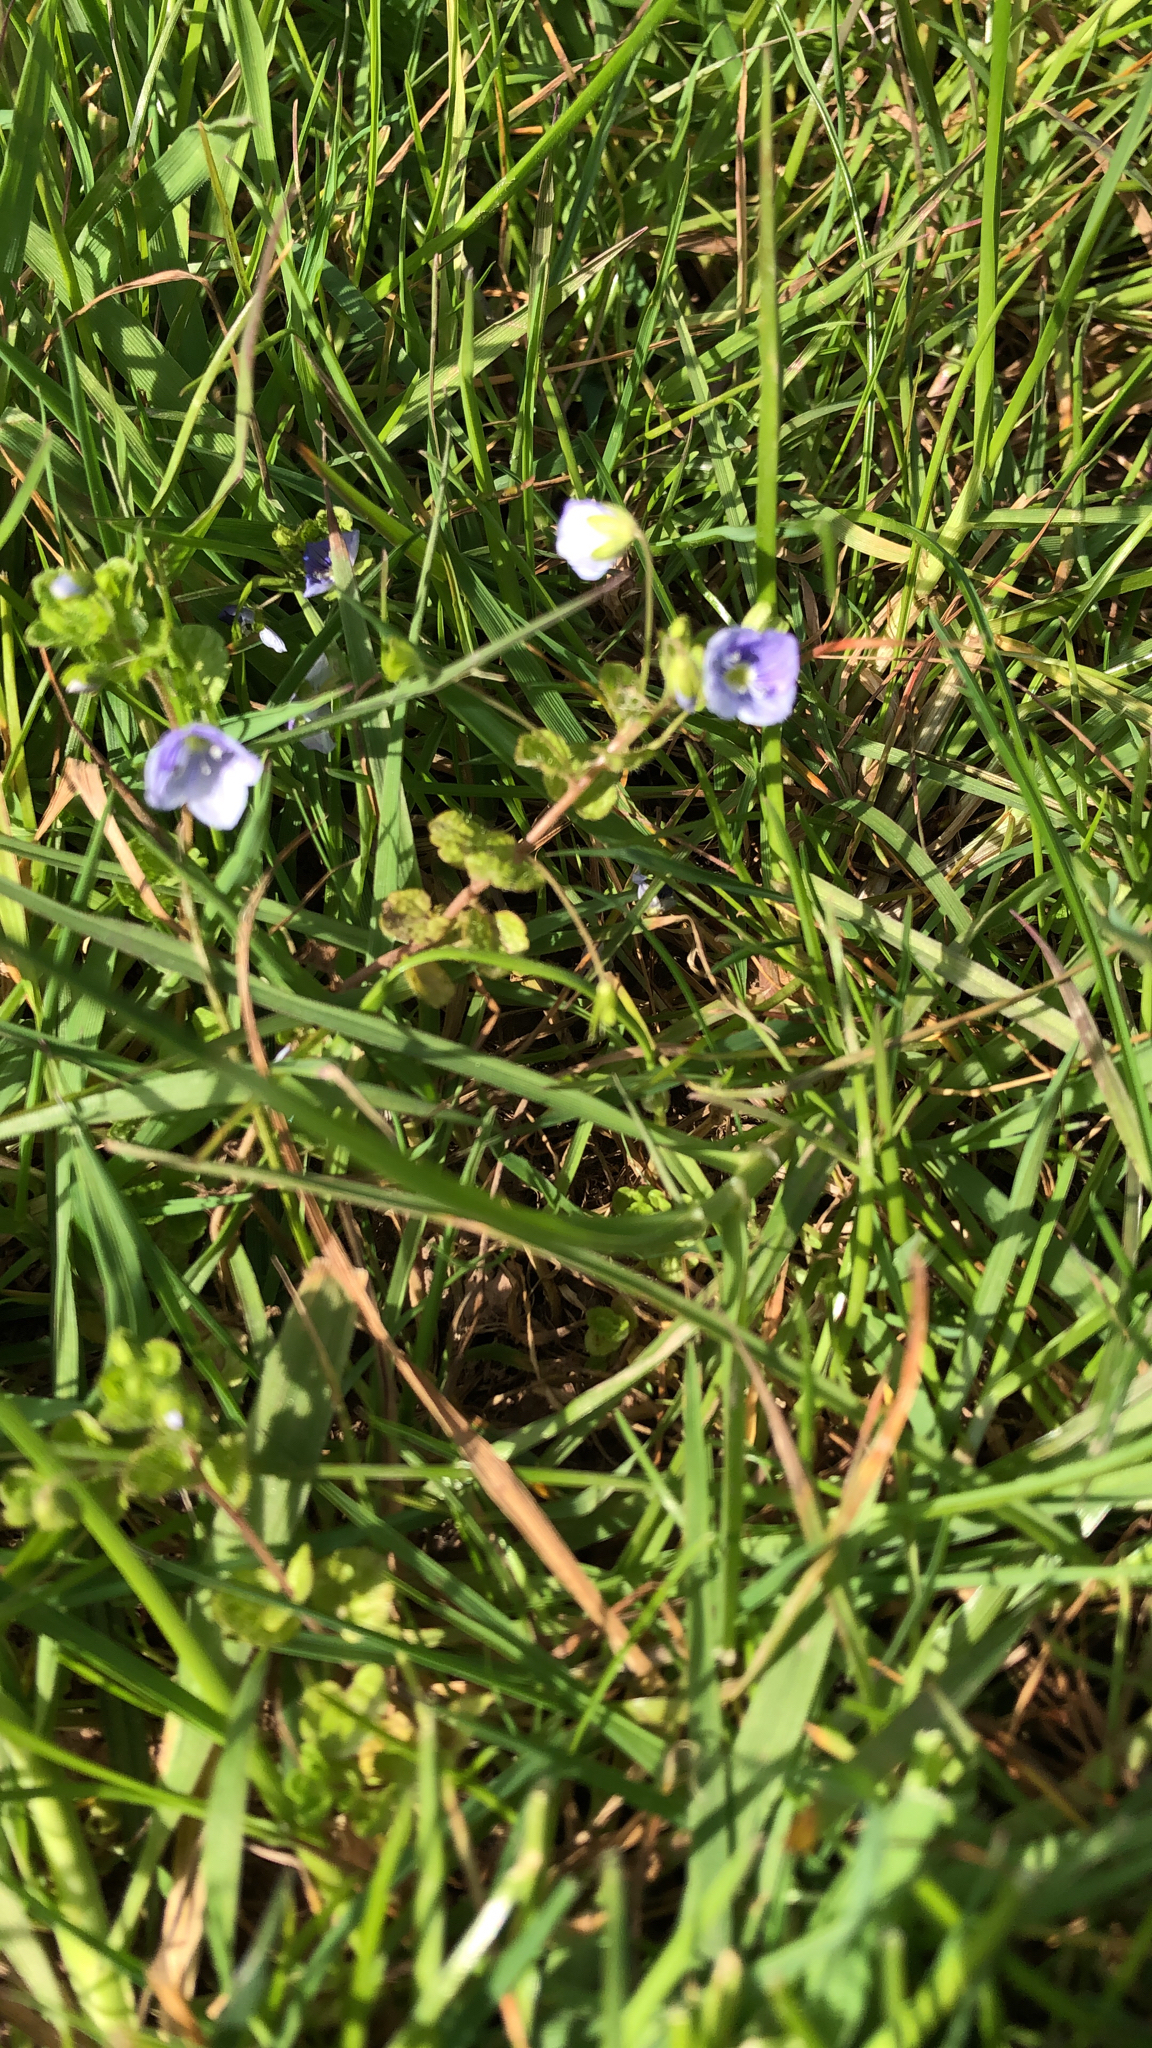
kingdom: Plantae
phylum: Tracheophyta
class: Magnoliopsida
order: Lamiales
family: Plantaginaceae
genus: Veronica
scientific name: Veronica filiformis
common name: Slender speedwell
